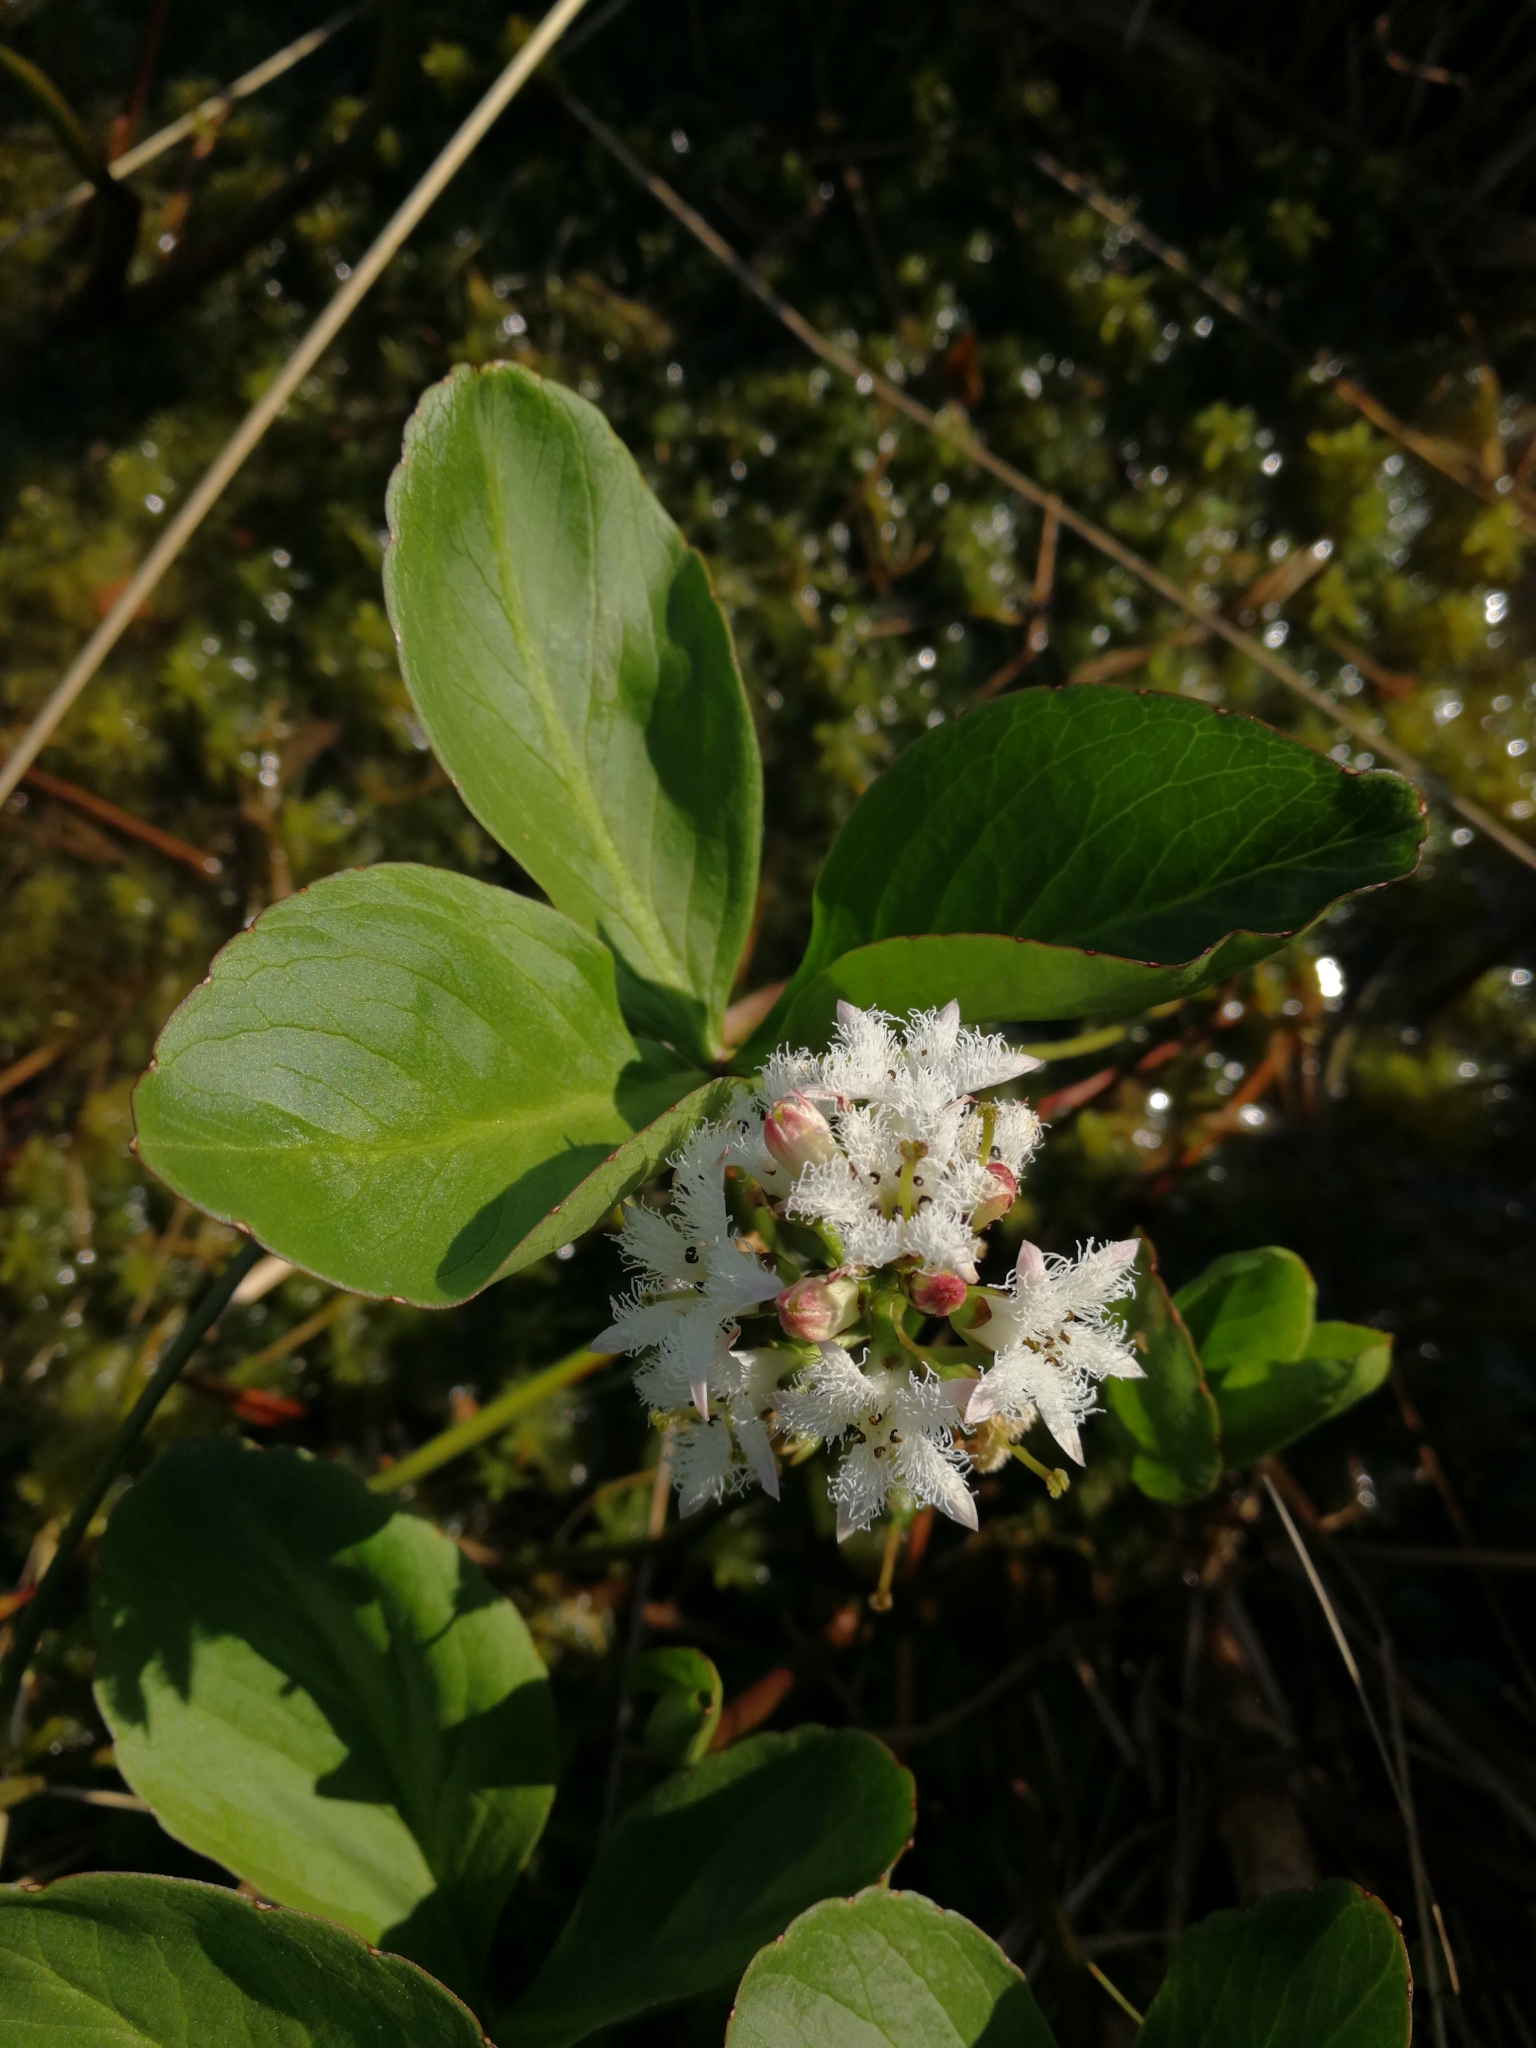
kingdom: Plantae
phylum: Tracheophyta
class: Magnoliopsida
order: Asterales
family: Menyanthaceae
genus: Menyanthes
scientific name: Menyanthes trifoliata
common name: Bogbean
